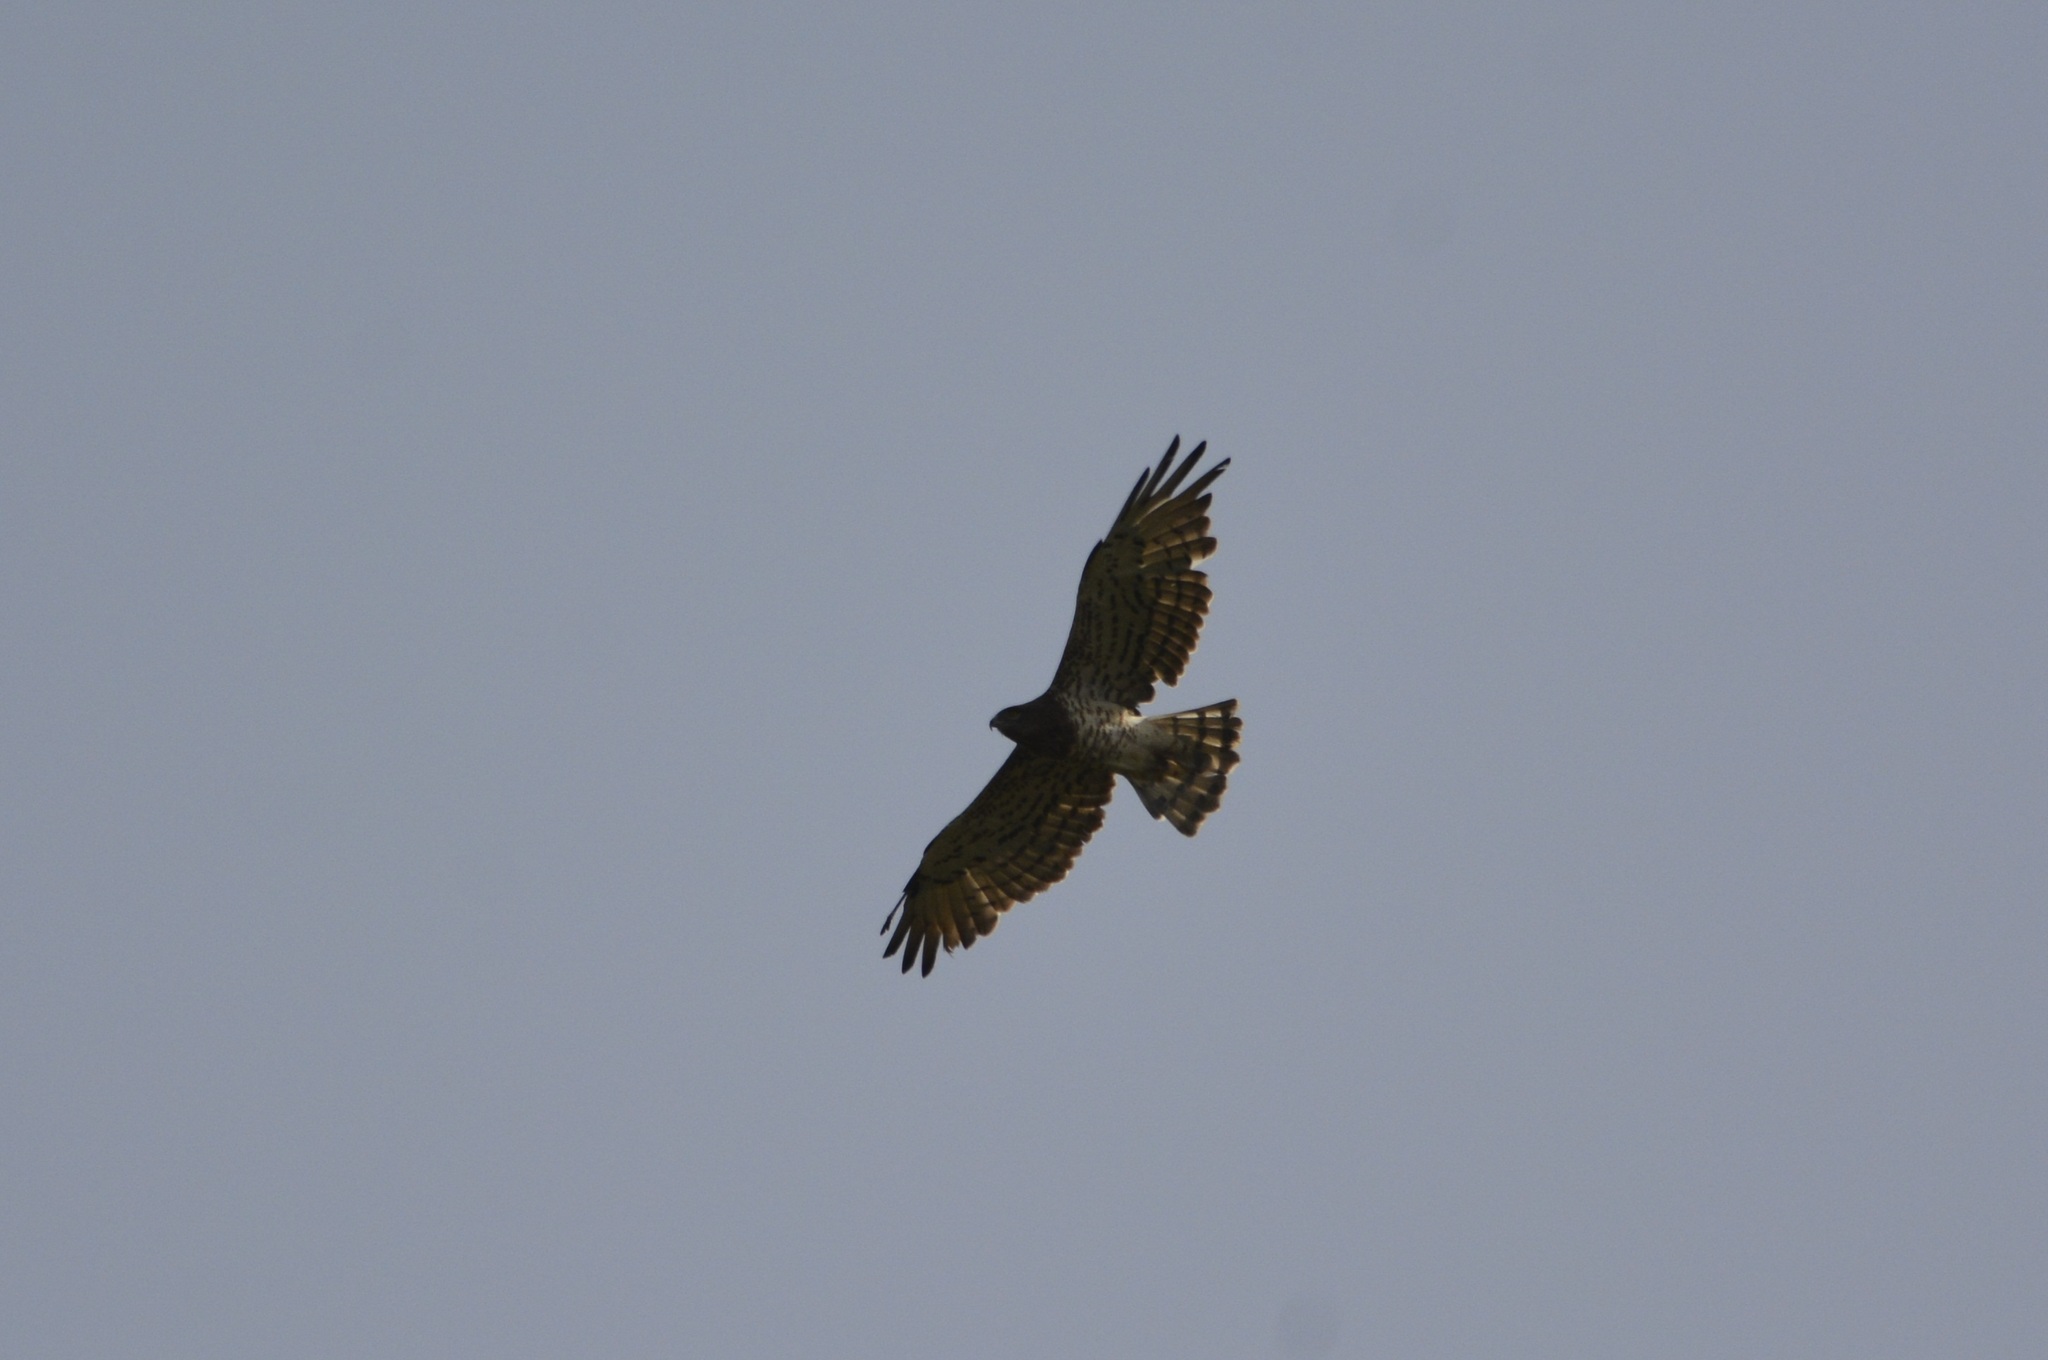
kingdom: Animalia
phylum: Chordata
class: Aves
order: Accipitriformes
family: Accipitridae
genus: Circaetus
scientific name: Circaetus gallicus
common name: Short-toed snake eagle
